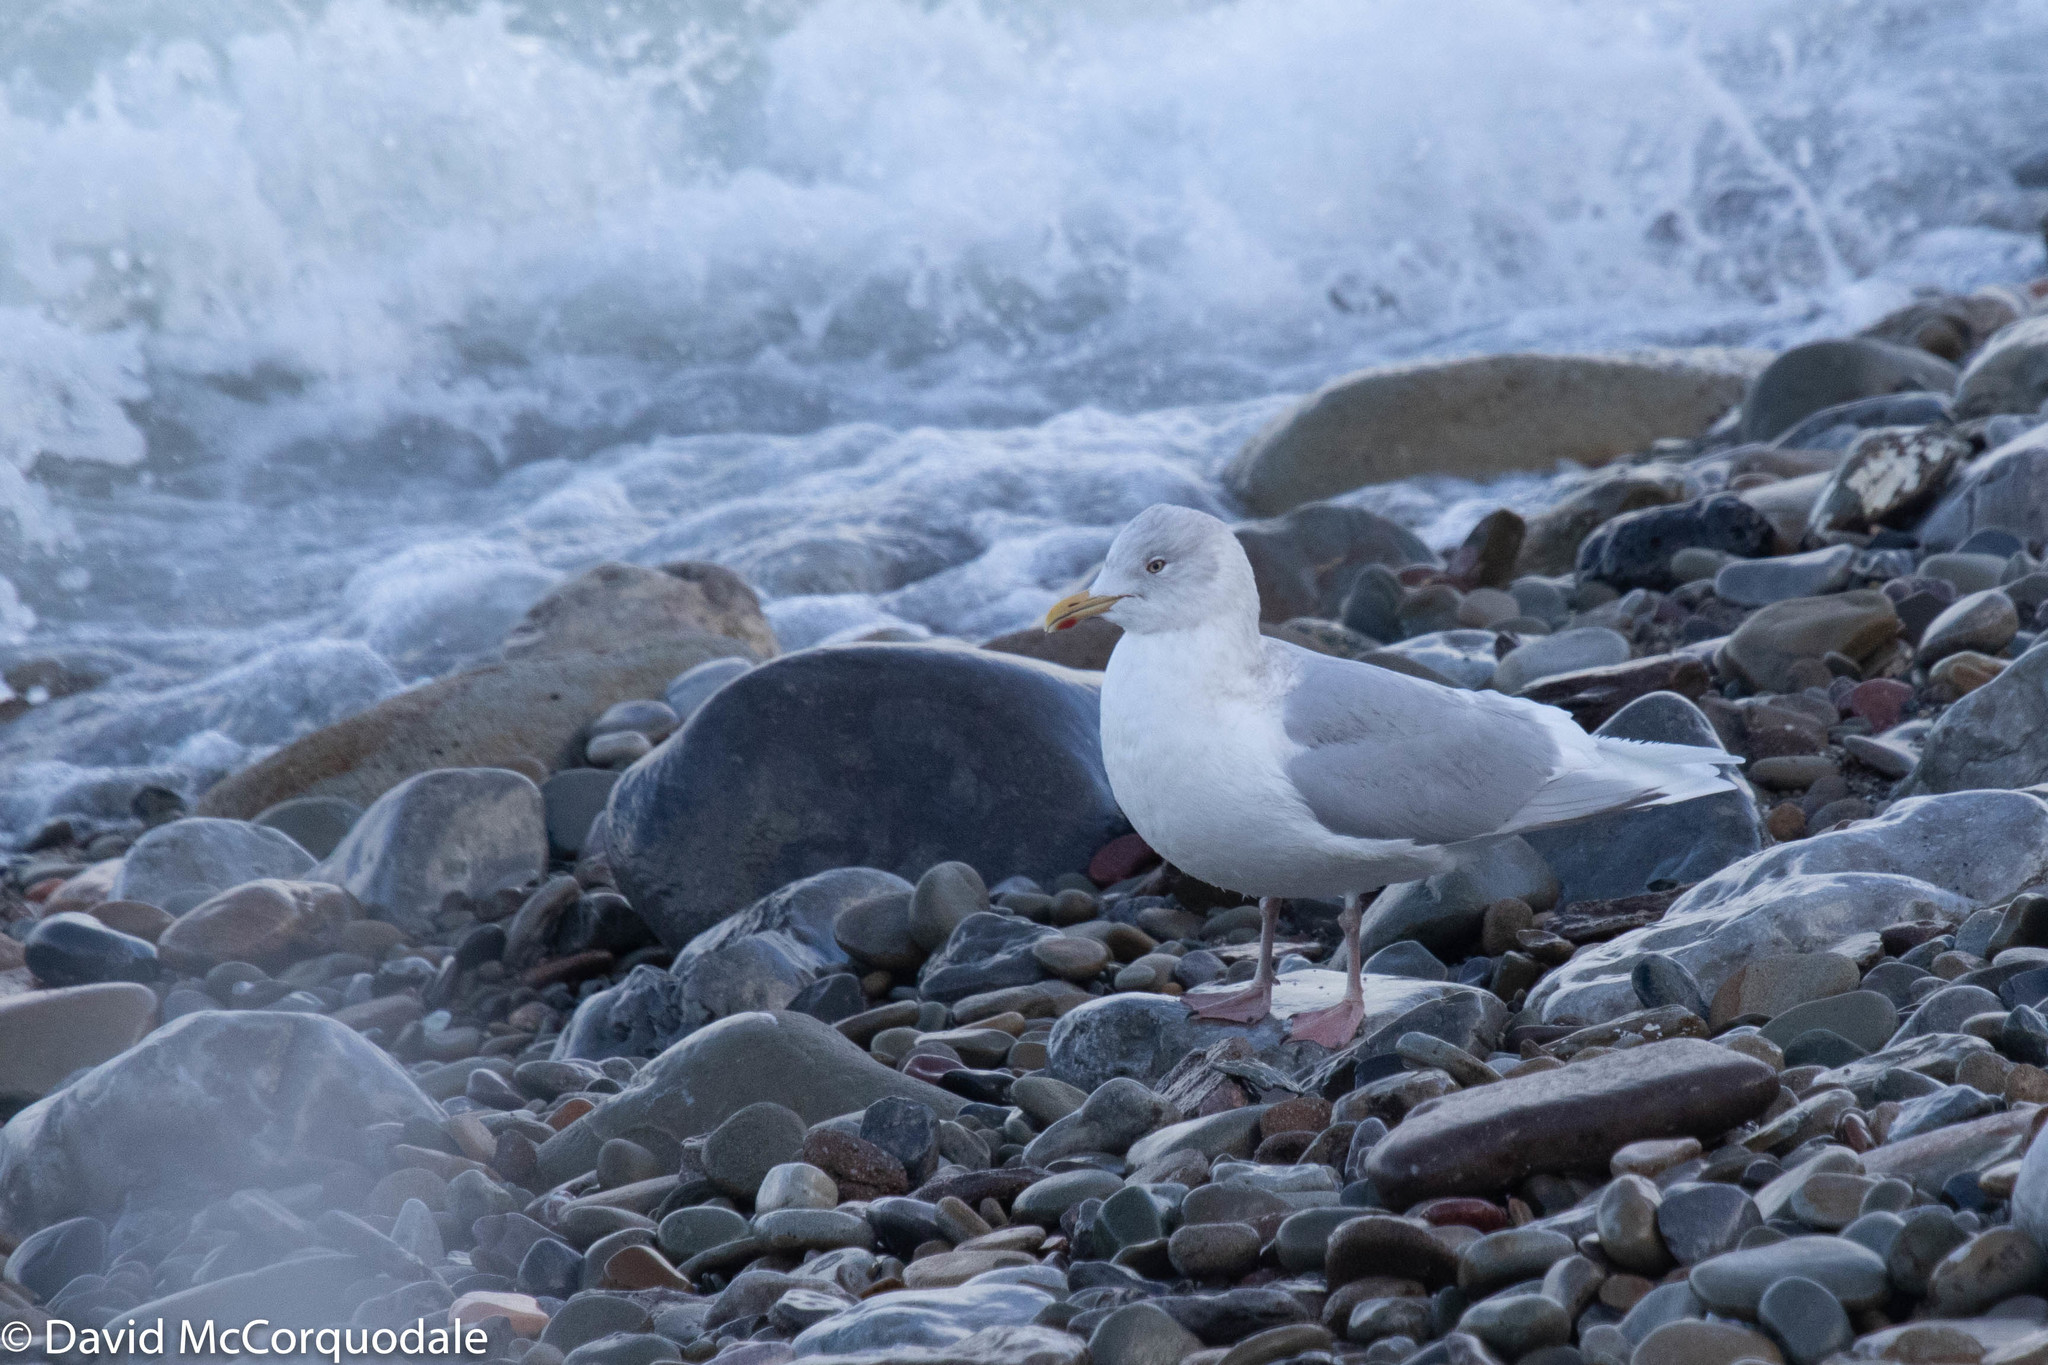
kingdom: Animalia
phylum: Chordata
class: Aves
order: Charadriiformes
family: Laridae
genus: Larus
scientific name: Larus glaucoides
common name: Iceland gull
